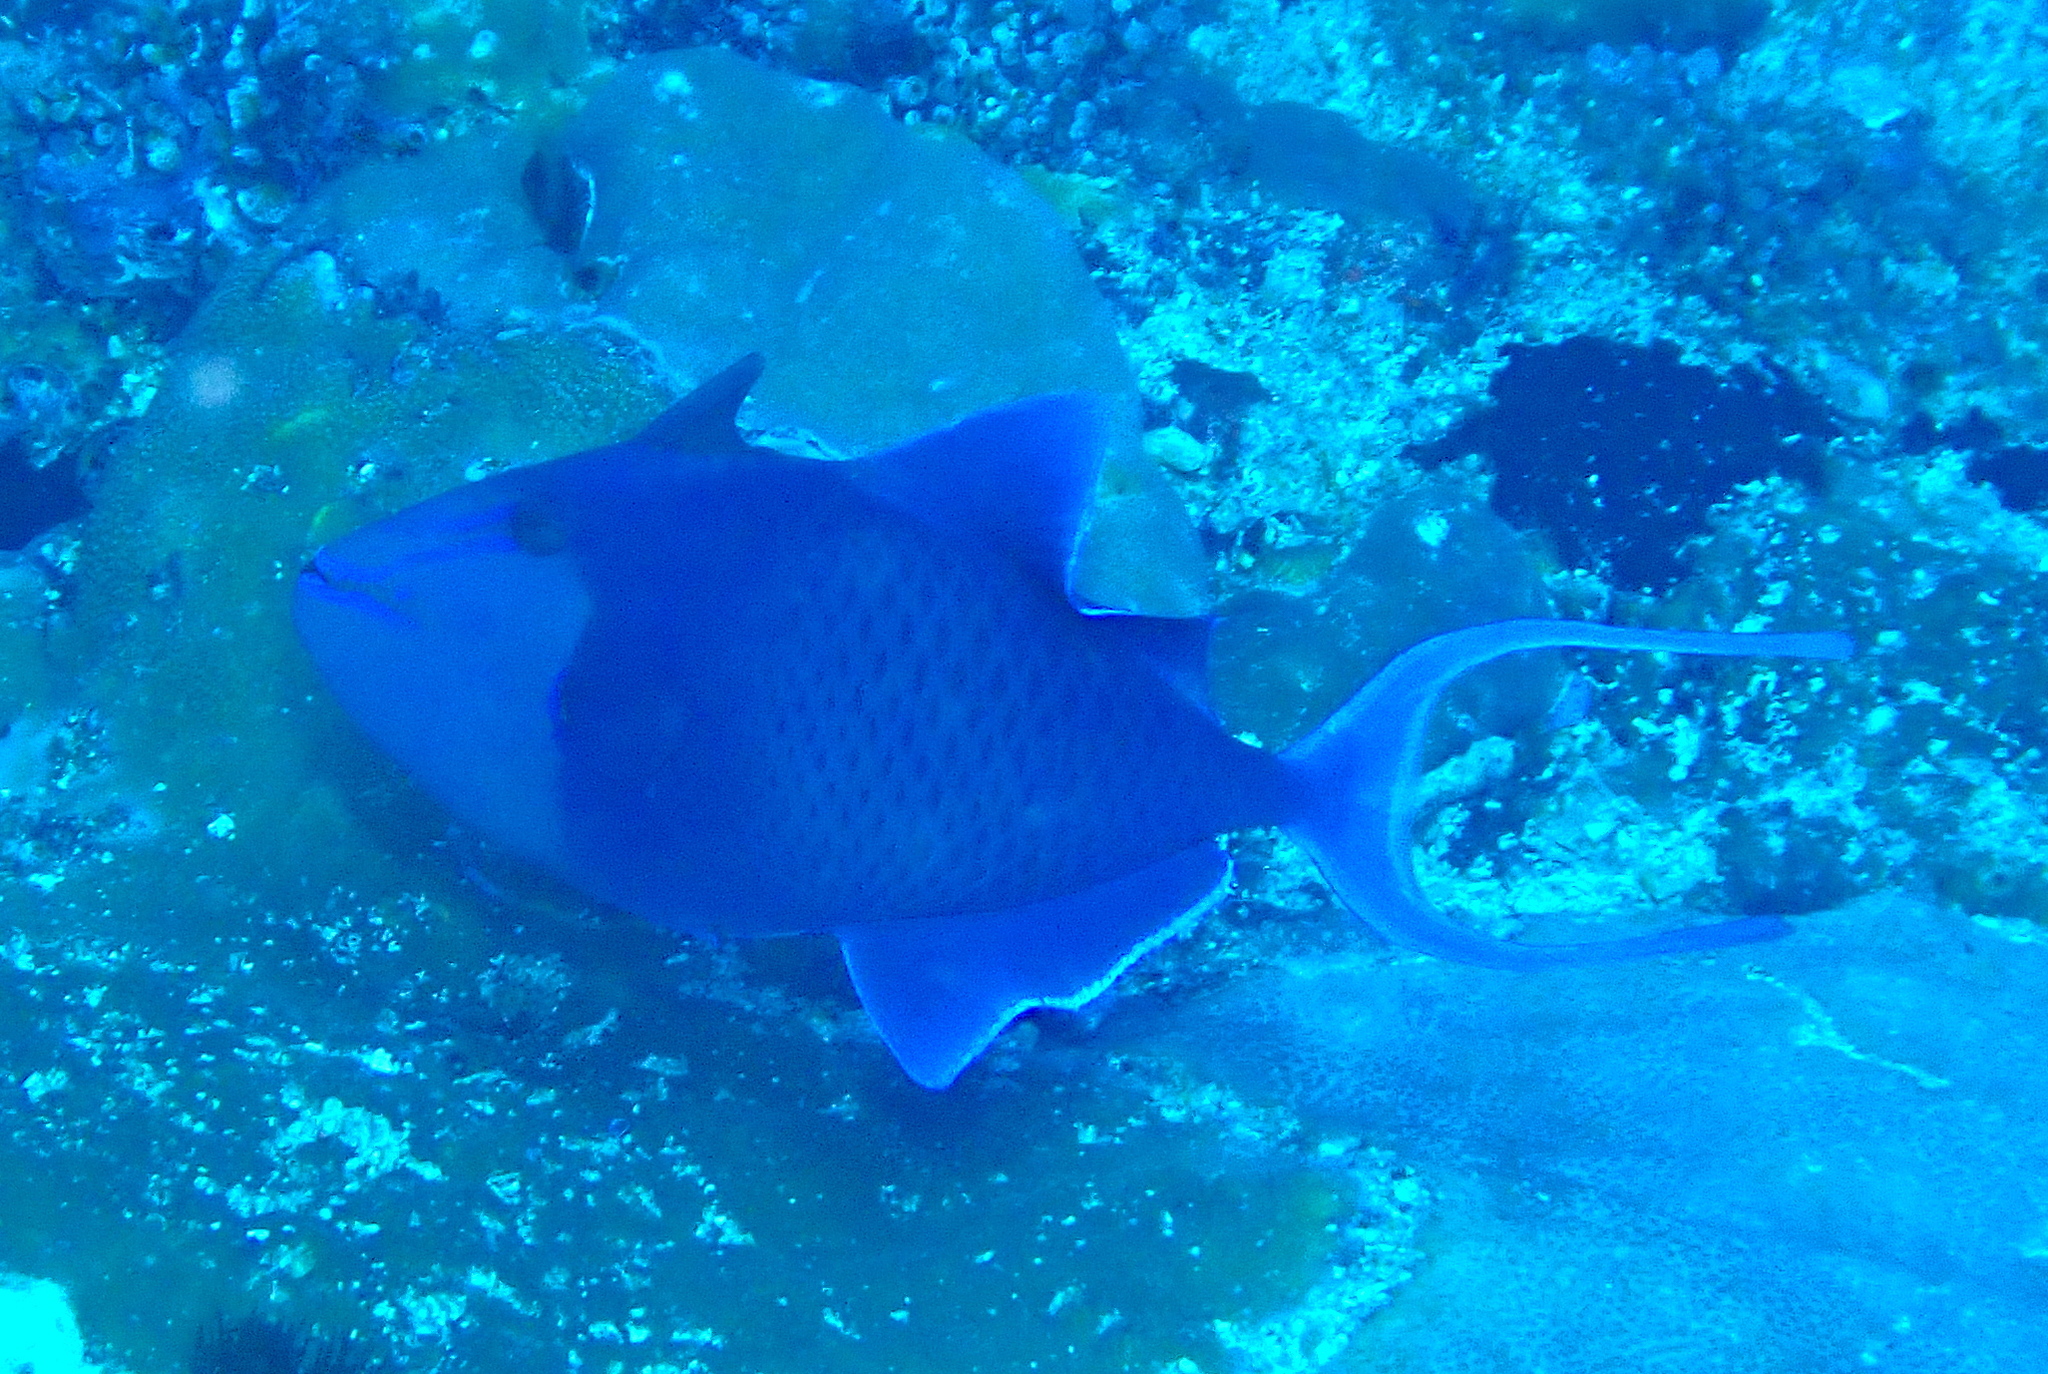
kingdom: Animalia
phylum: Chordata
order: Tetraodontiformes
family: Balistidae
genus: Odonus
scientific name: Odonus niger
